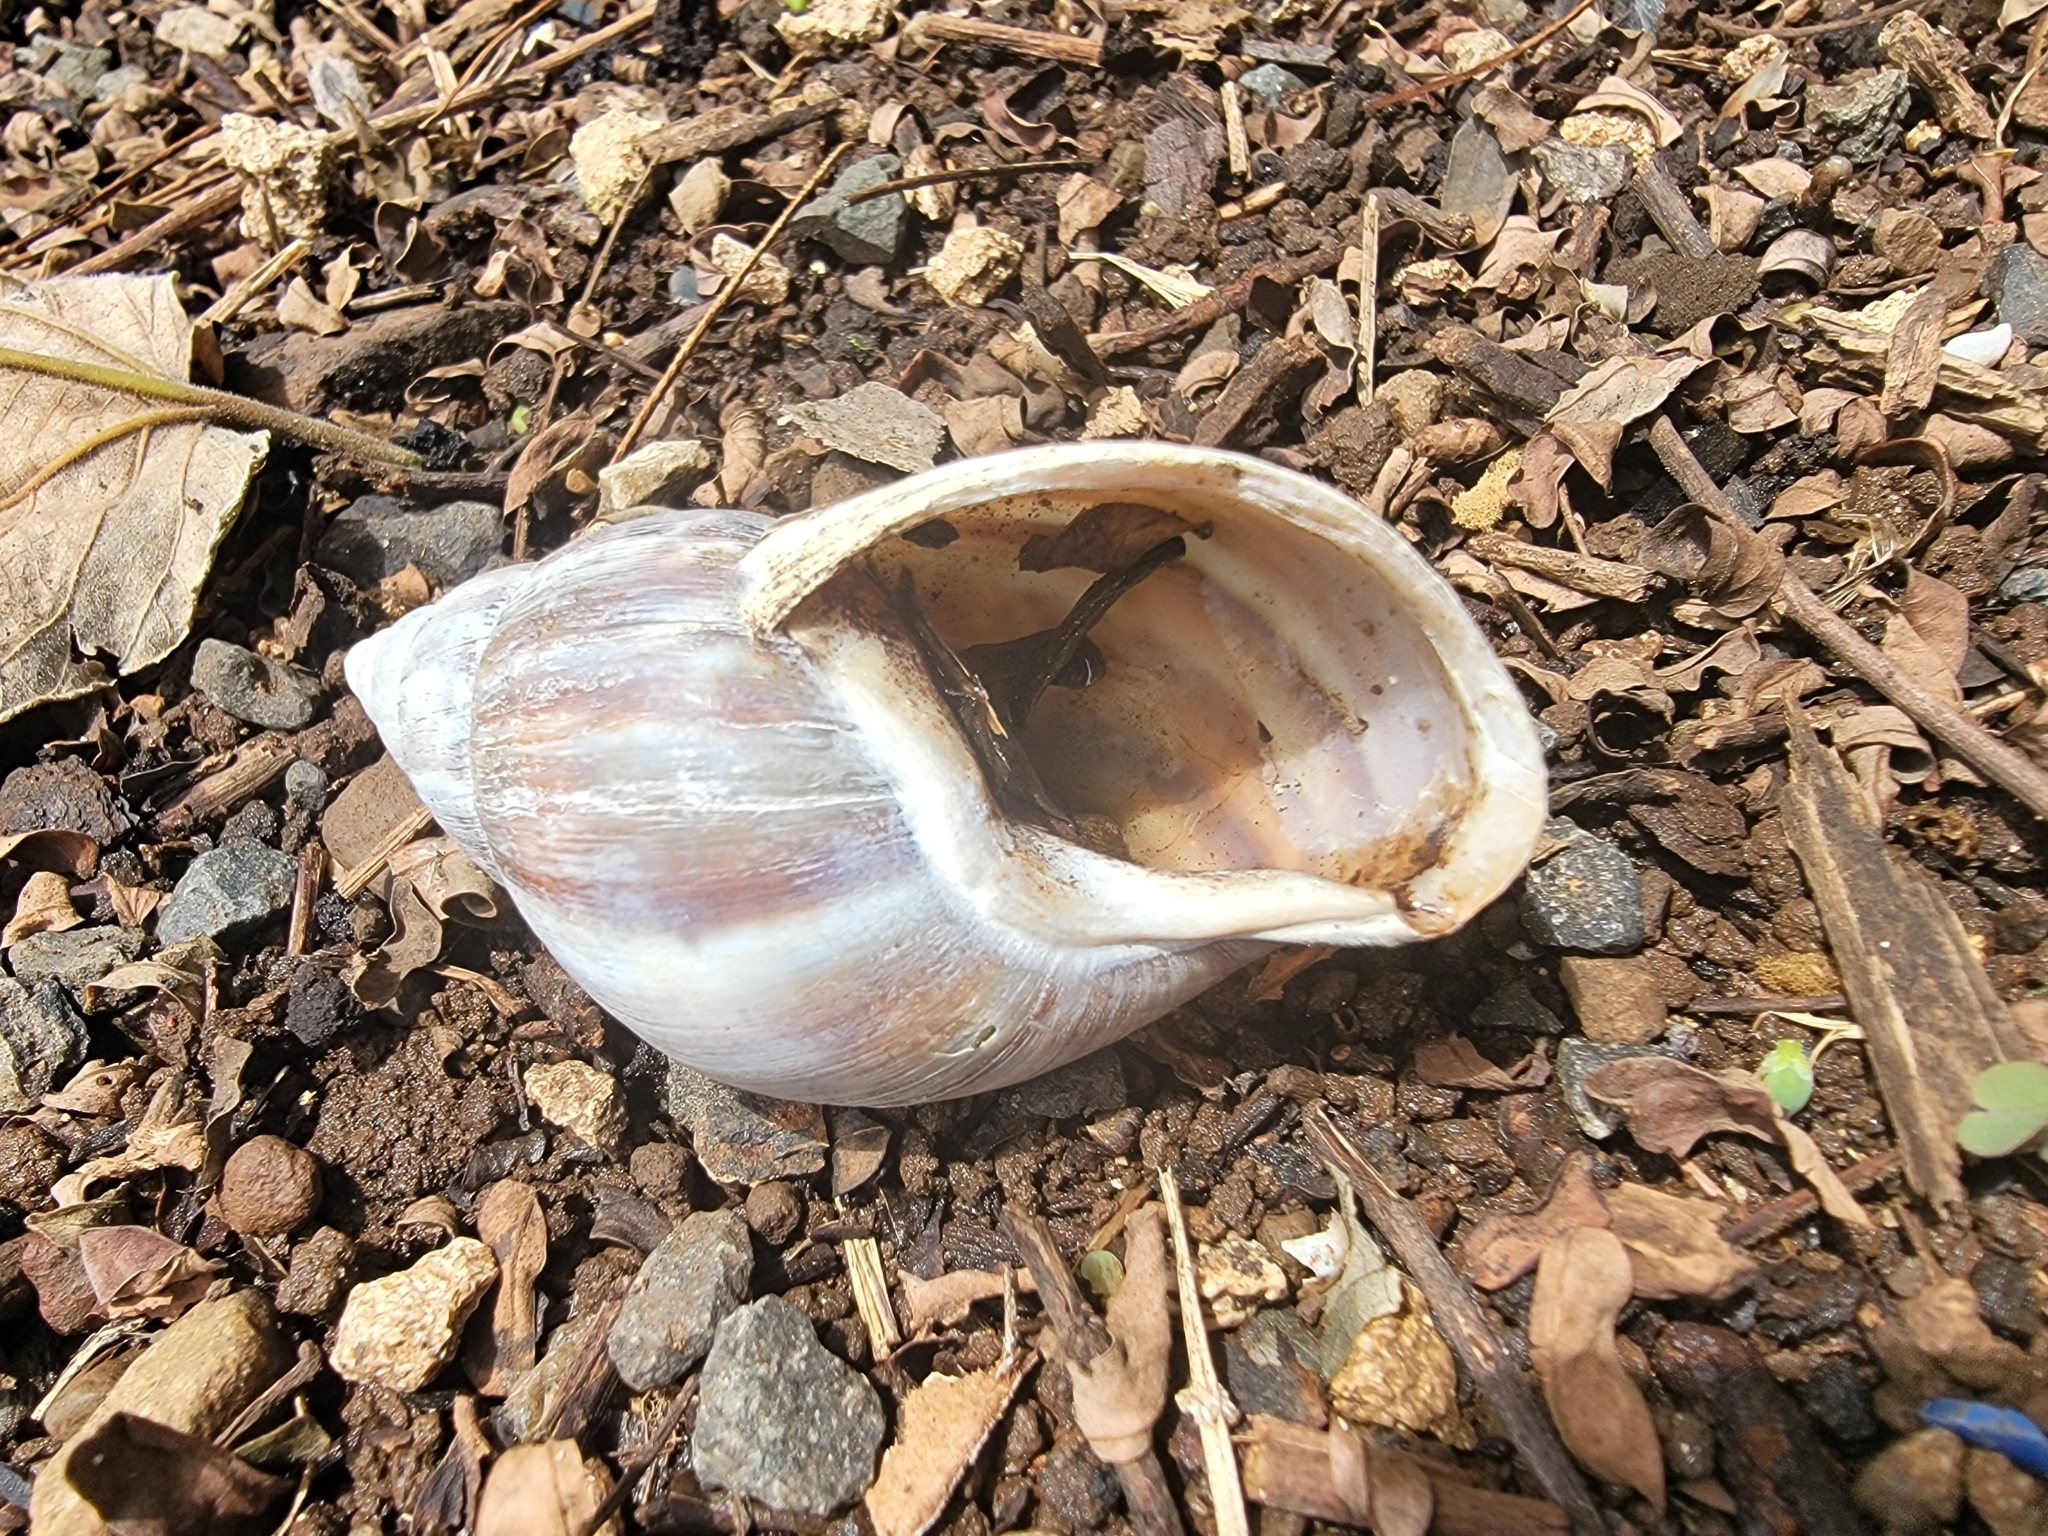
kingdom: Animalia
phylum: Mollusca
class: Gastropoda
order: Stylommatophora
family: Achatinidae
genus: Lissachatina
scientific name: Lissachatina fulica
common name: Giant african snail
